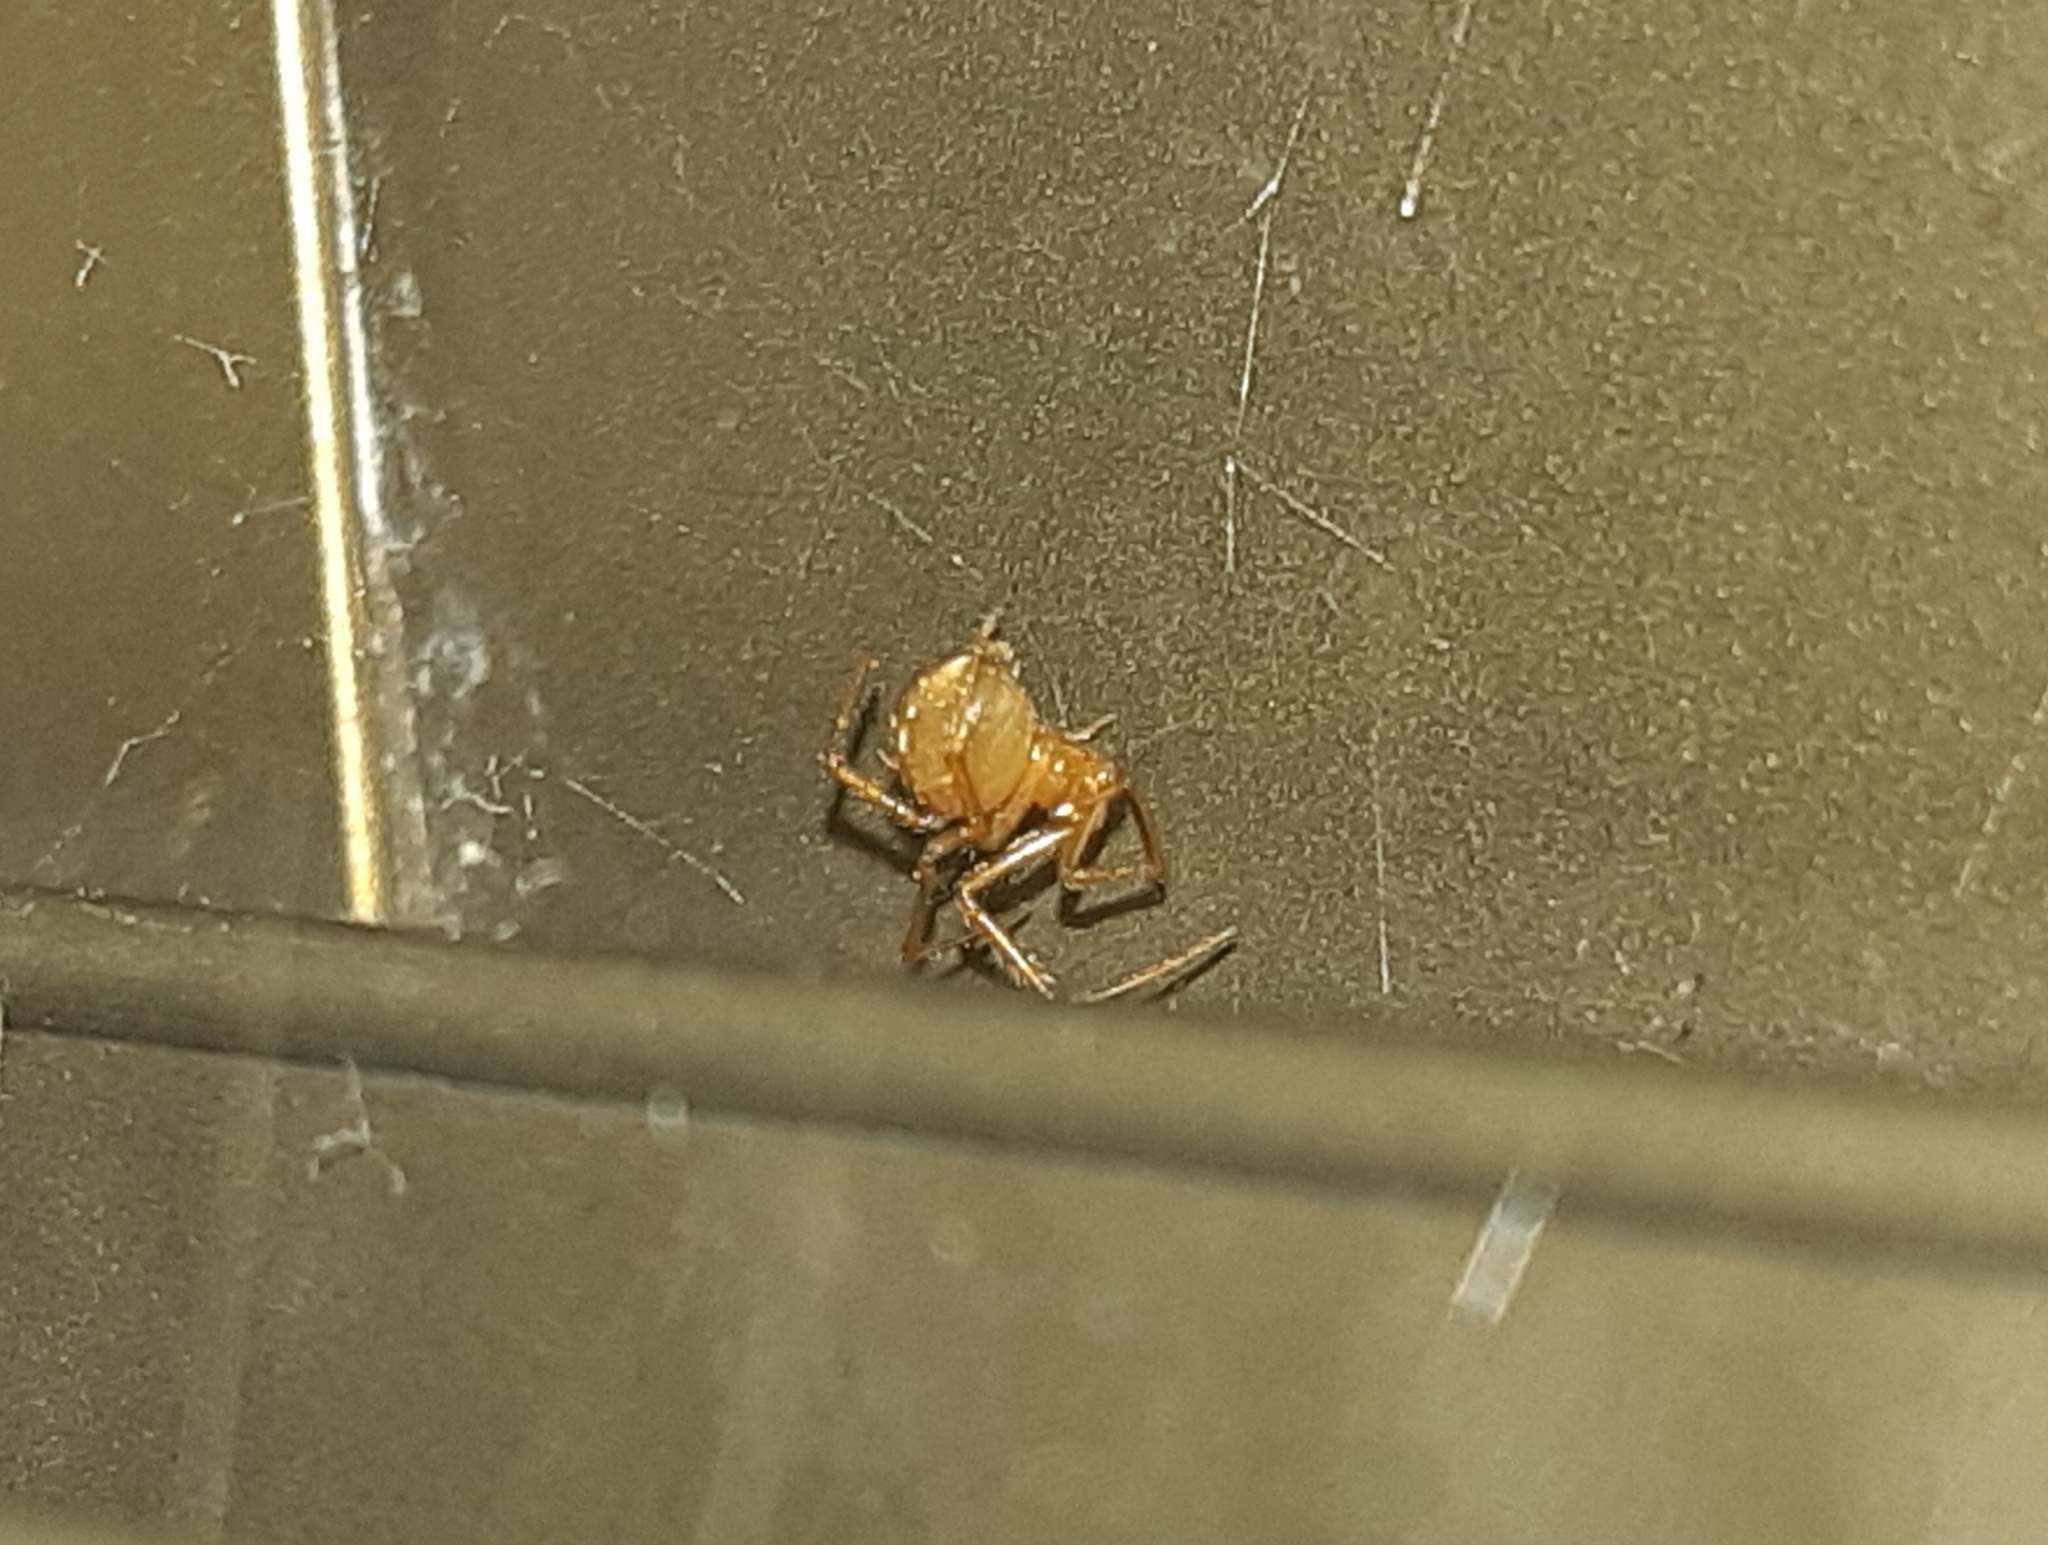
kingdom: Animalia
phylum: Arthropoda
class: Arachnida
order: Araneae
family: Theridiidae
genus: Nesticodes
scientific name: Nesticodes rufipes
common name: Cobweb spiders
